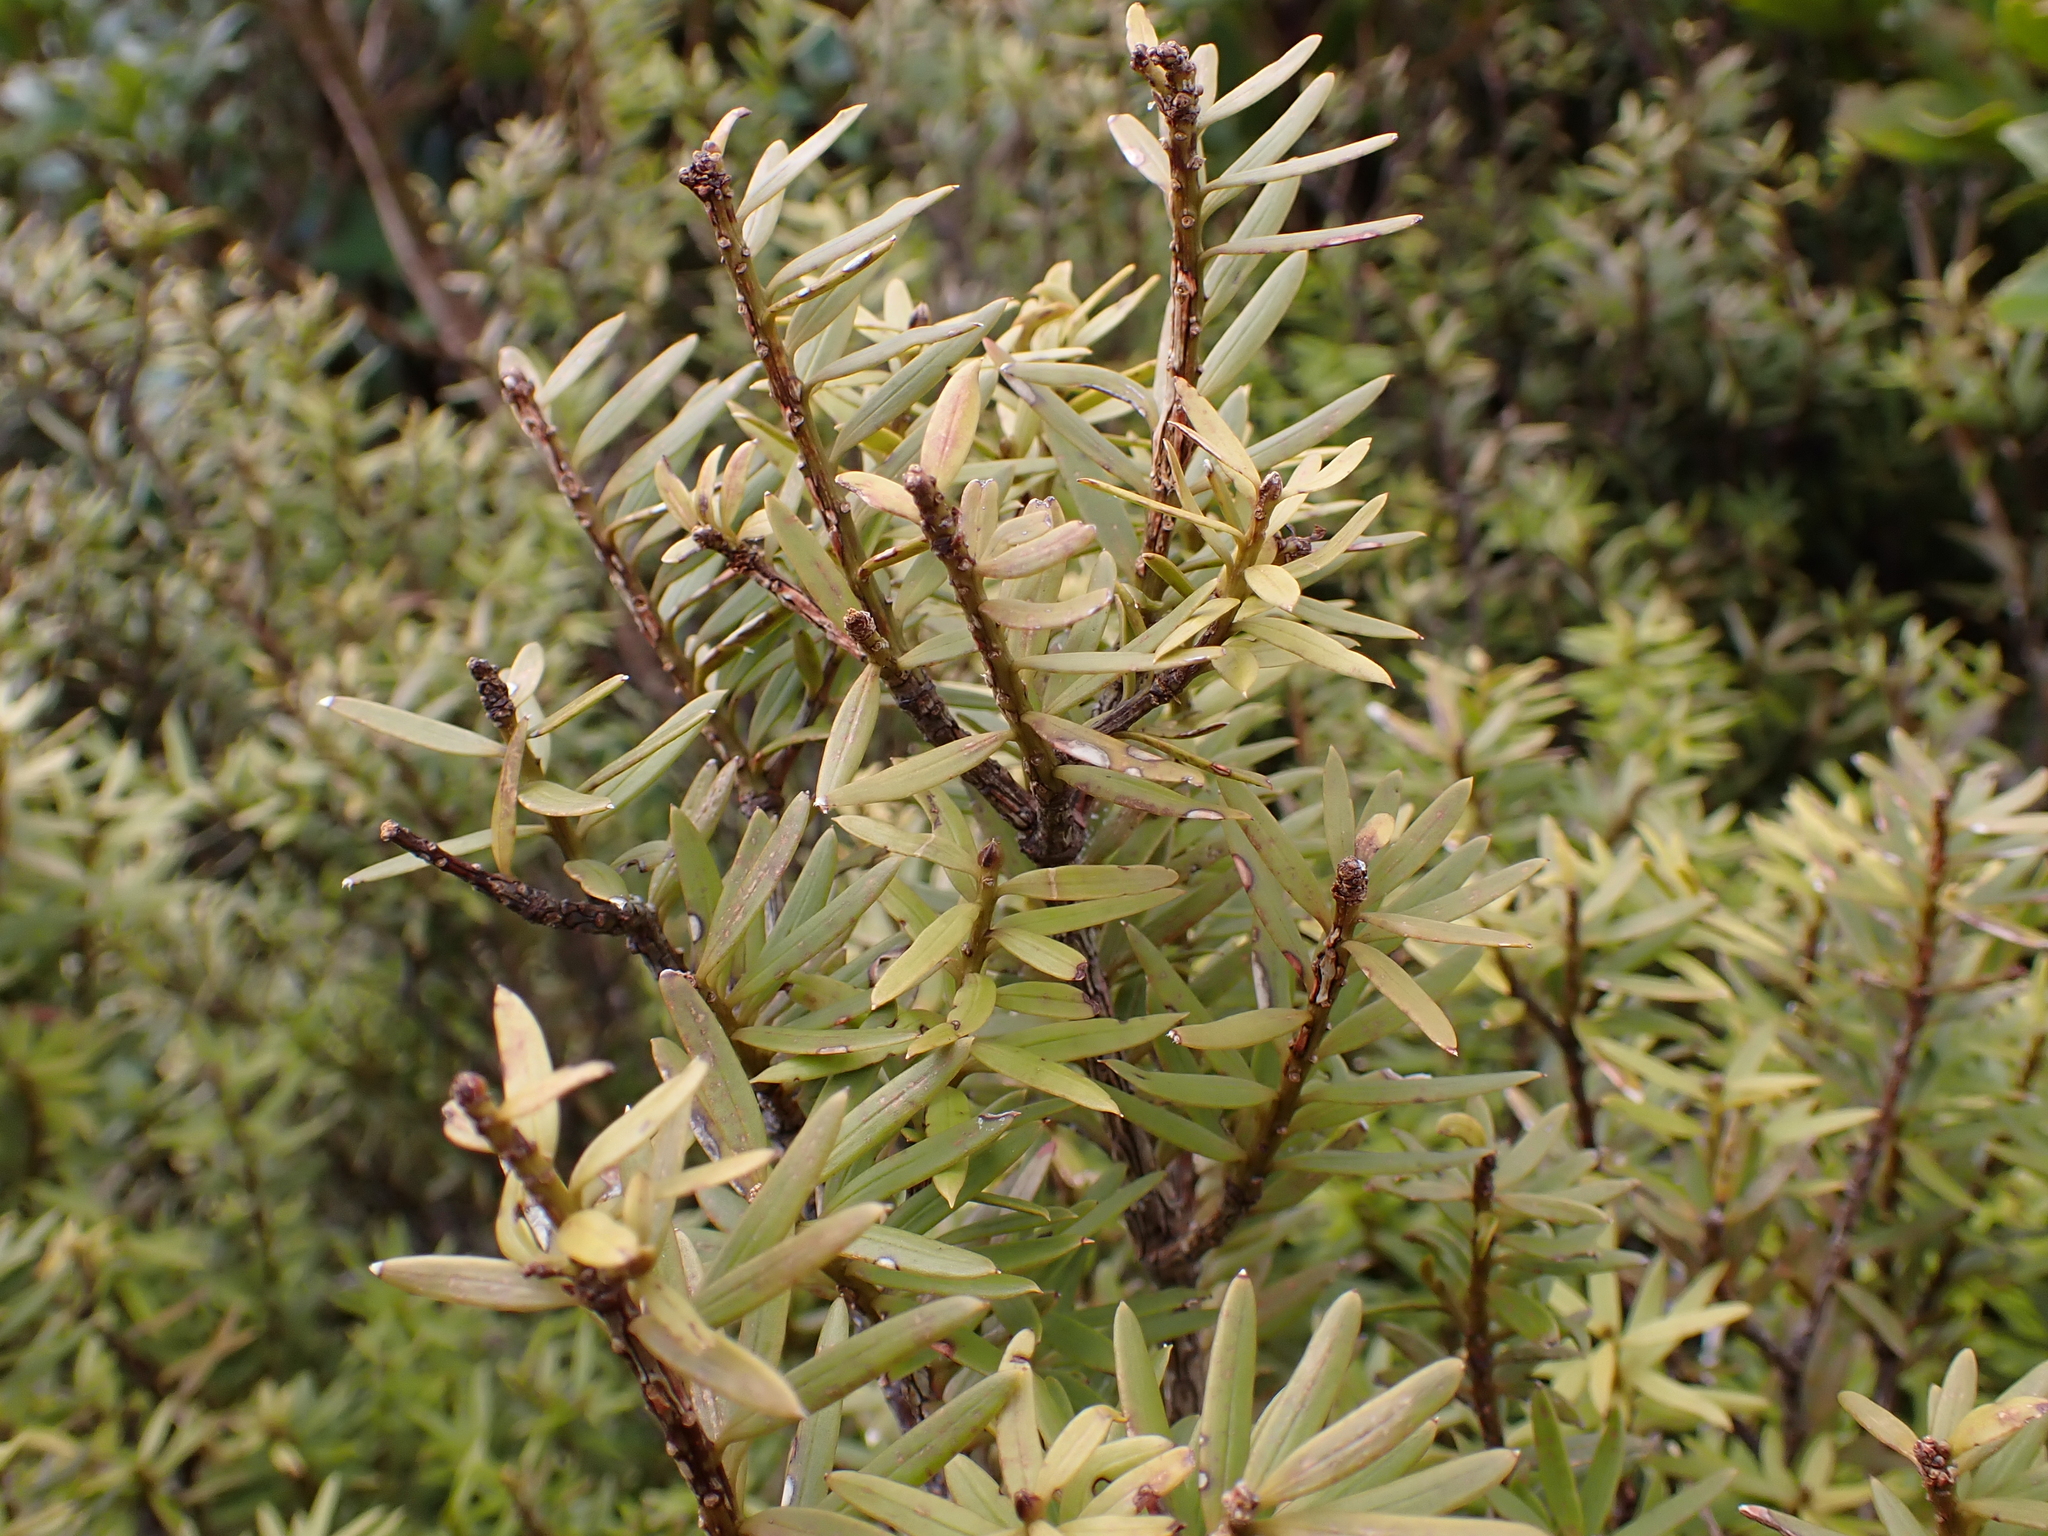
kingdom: Plantae
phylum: Tracheophyta
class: Pinopsida
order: Pinales
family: Podocarpaceae
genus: Podocarpus
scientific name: Podocarpus laetus
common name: Hall's totara
